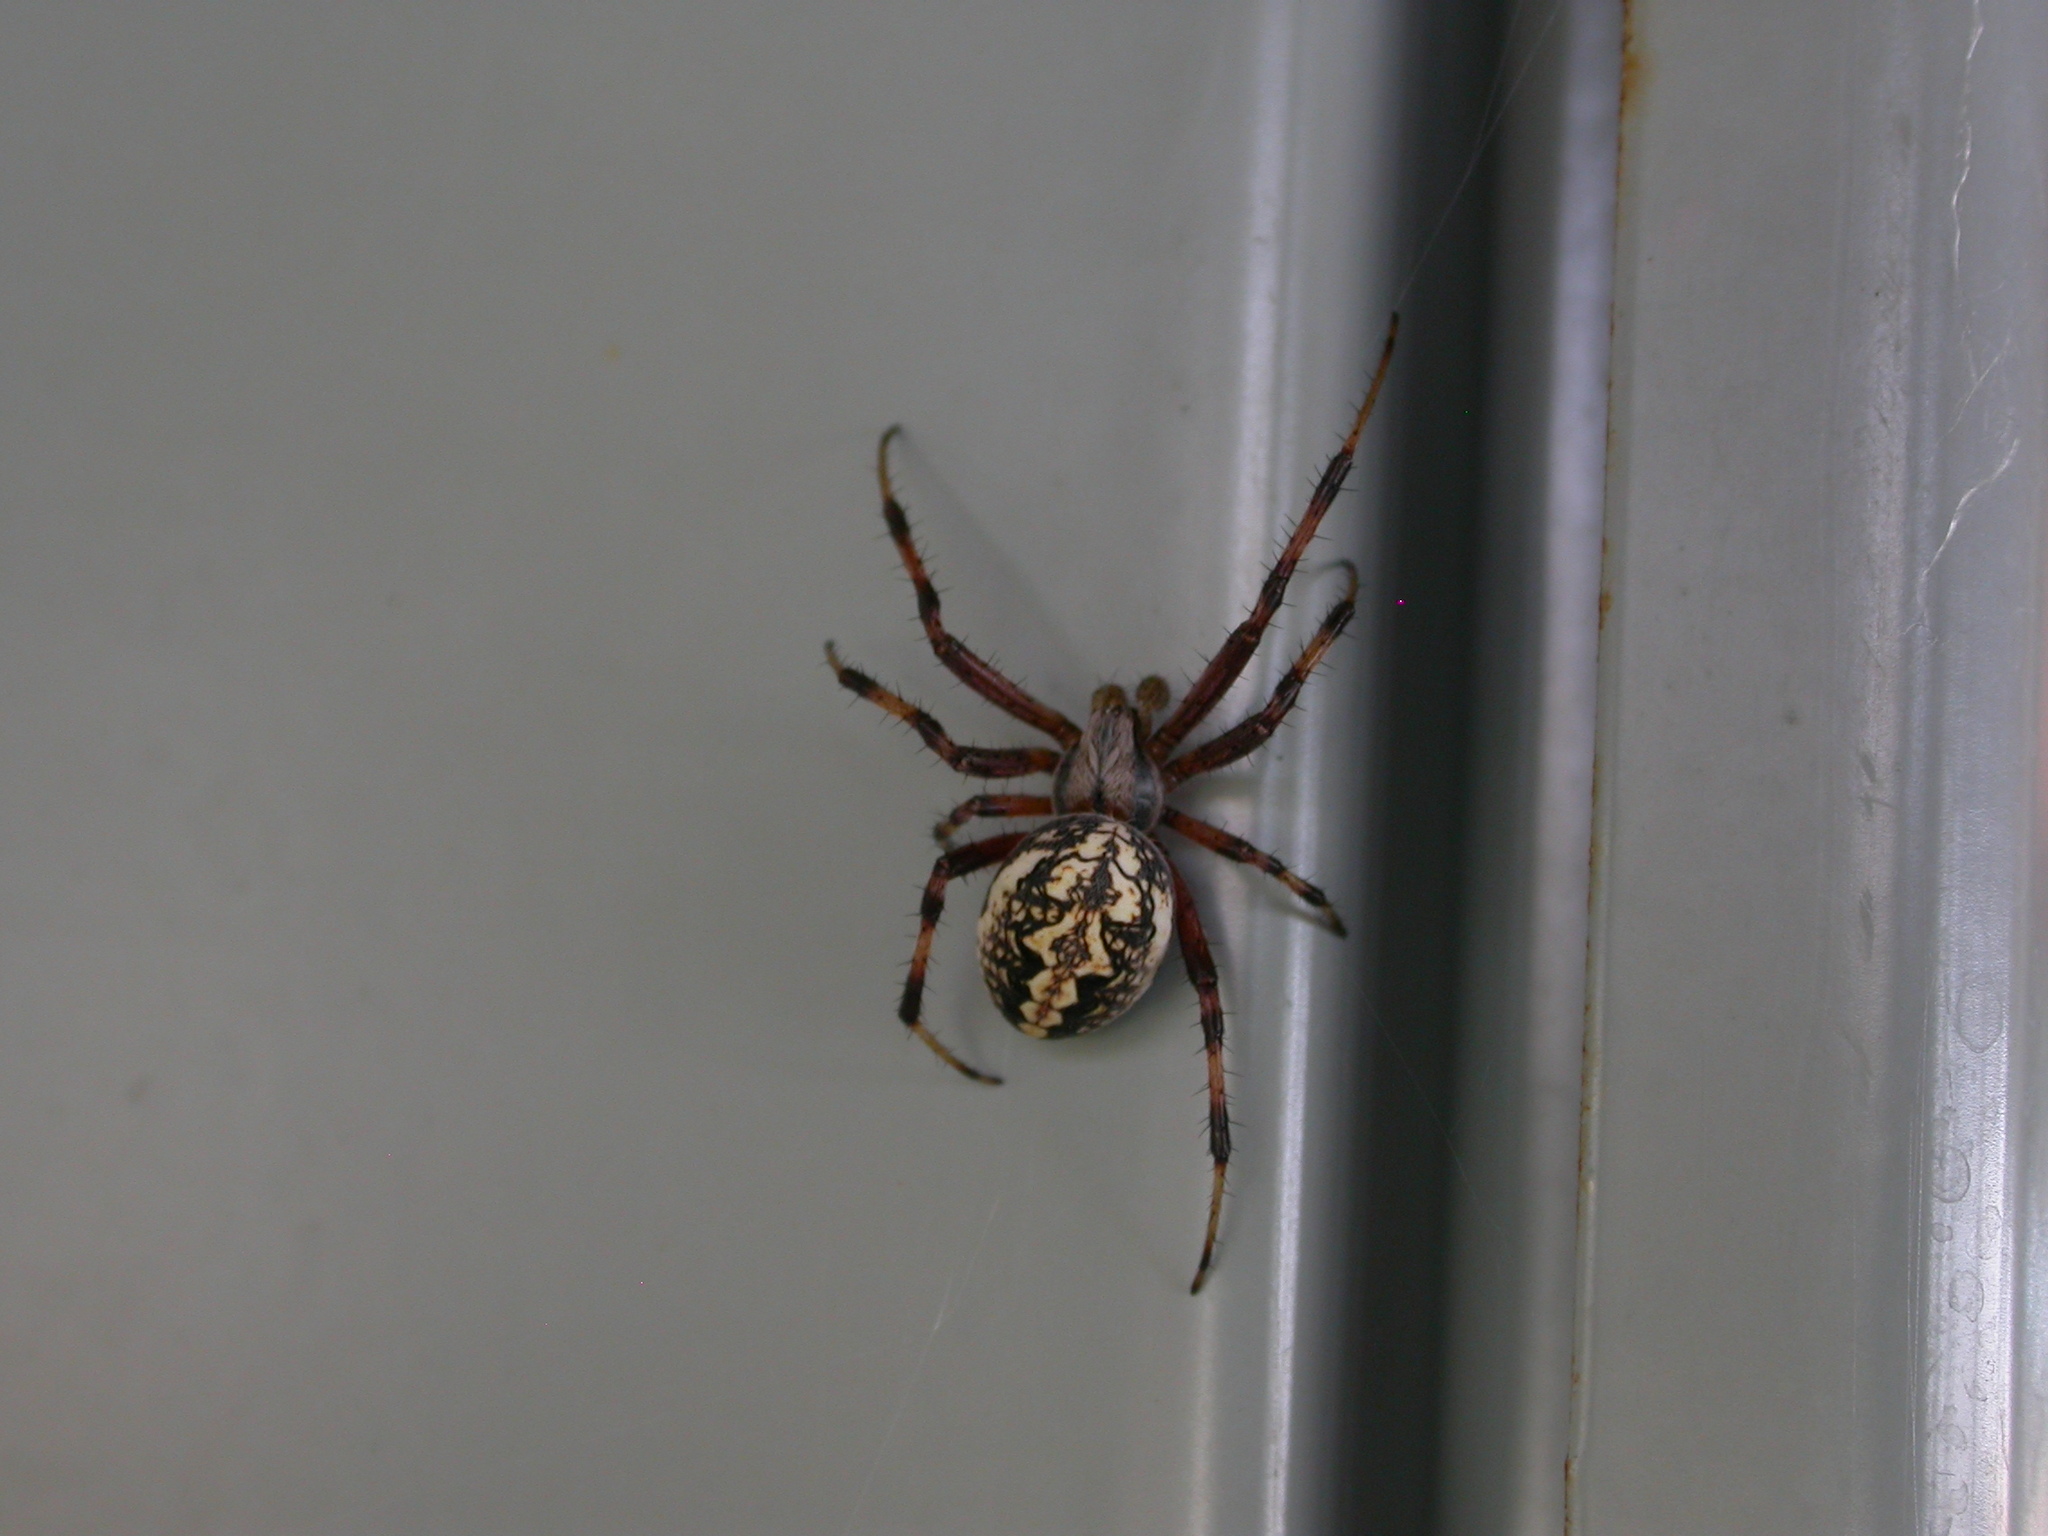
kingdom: Animalia
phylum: Arthropoda
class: Arachnida
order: Araneae
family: Araneidae
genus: Neoscona
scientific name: Neoscona oaxacensis
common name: Orb weavers
